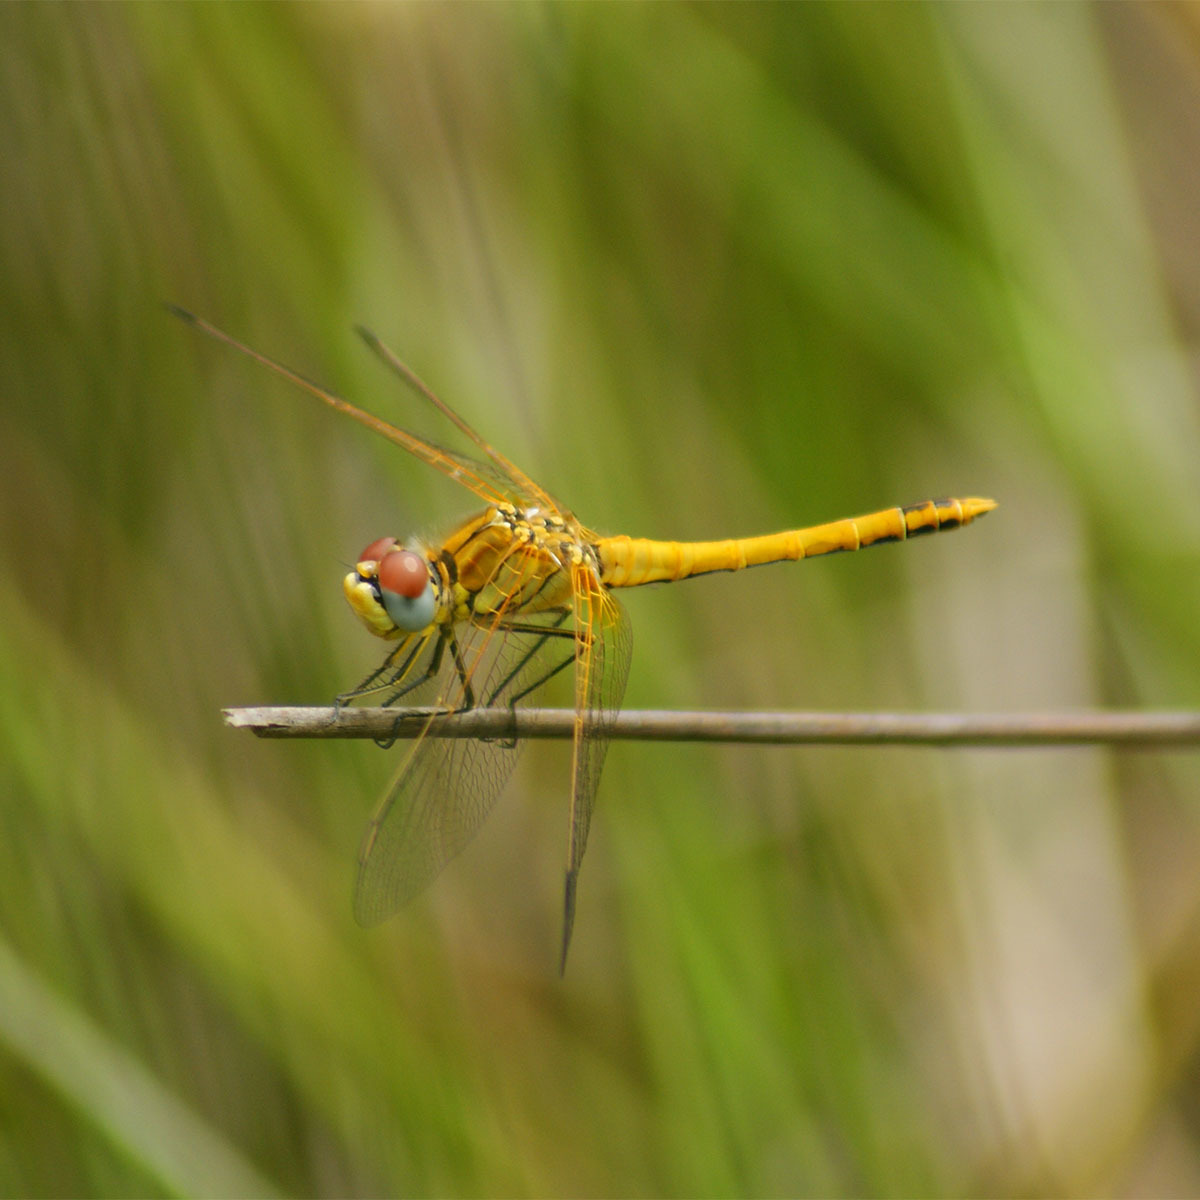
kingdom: Animalia
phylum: Arthropoda
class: Insecta
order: Odonata
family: Libellulidae
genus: Sympetrum
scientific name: Sympetrum fonscolombii
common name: Red-veined darter
